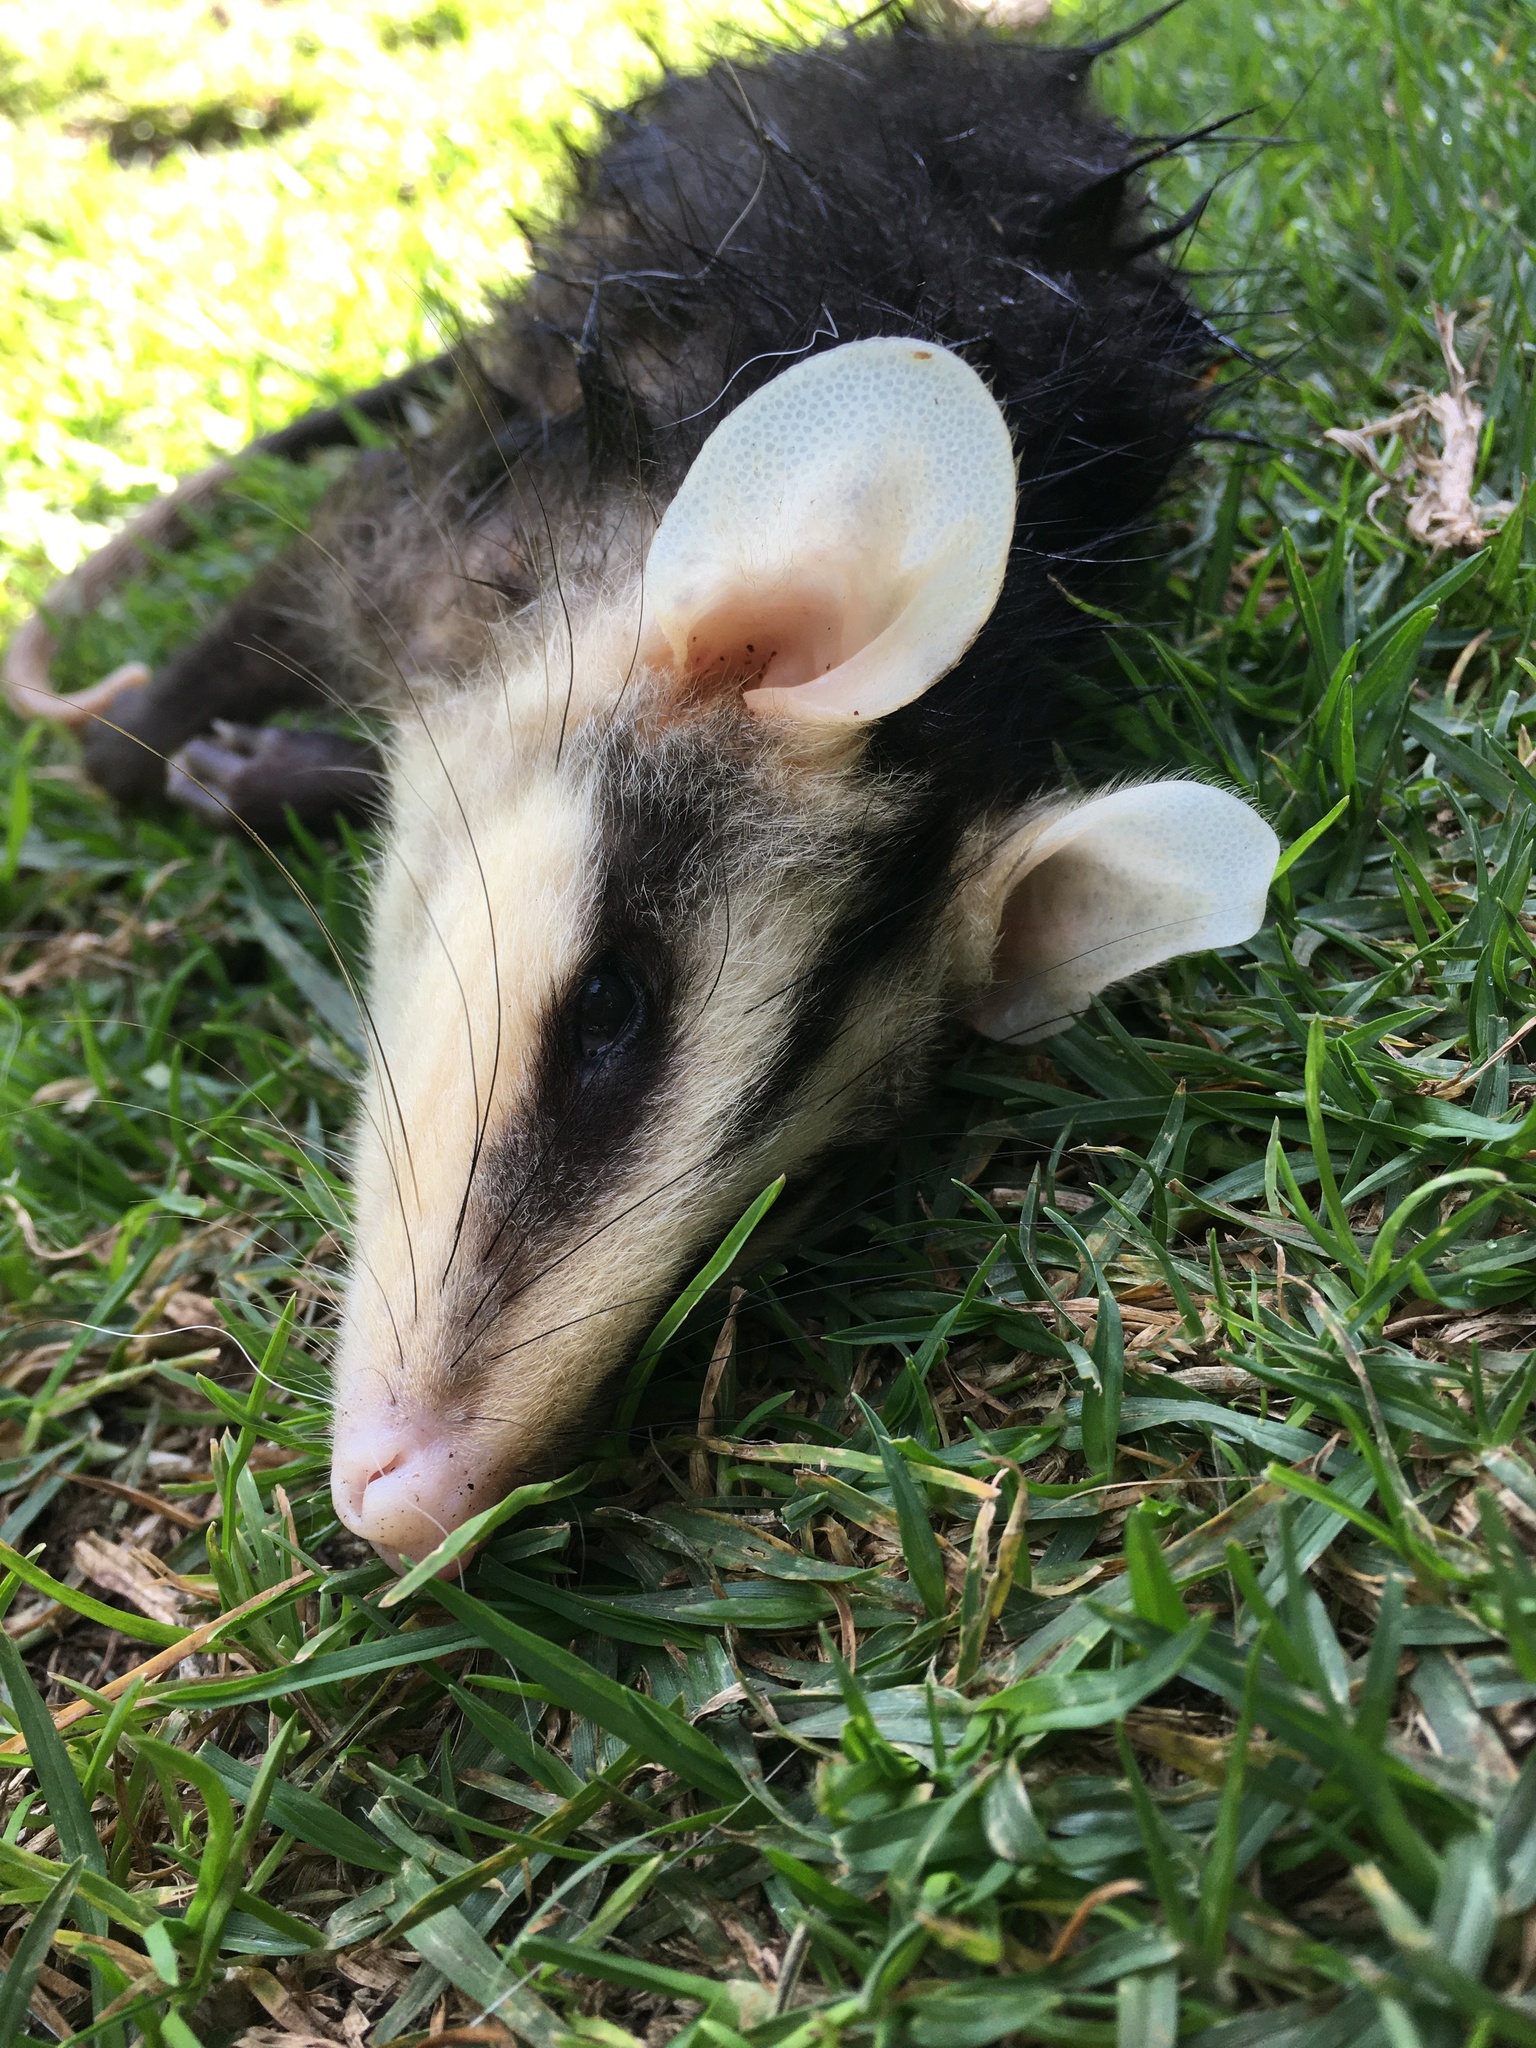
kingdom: Animalia
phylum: Chordata
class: Mammalia
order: Didelphimorphia
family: Didelphidae
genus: Didelphis
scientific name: Didelphis pernigra
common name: Andean white-eared opossum
